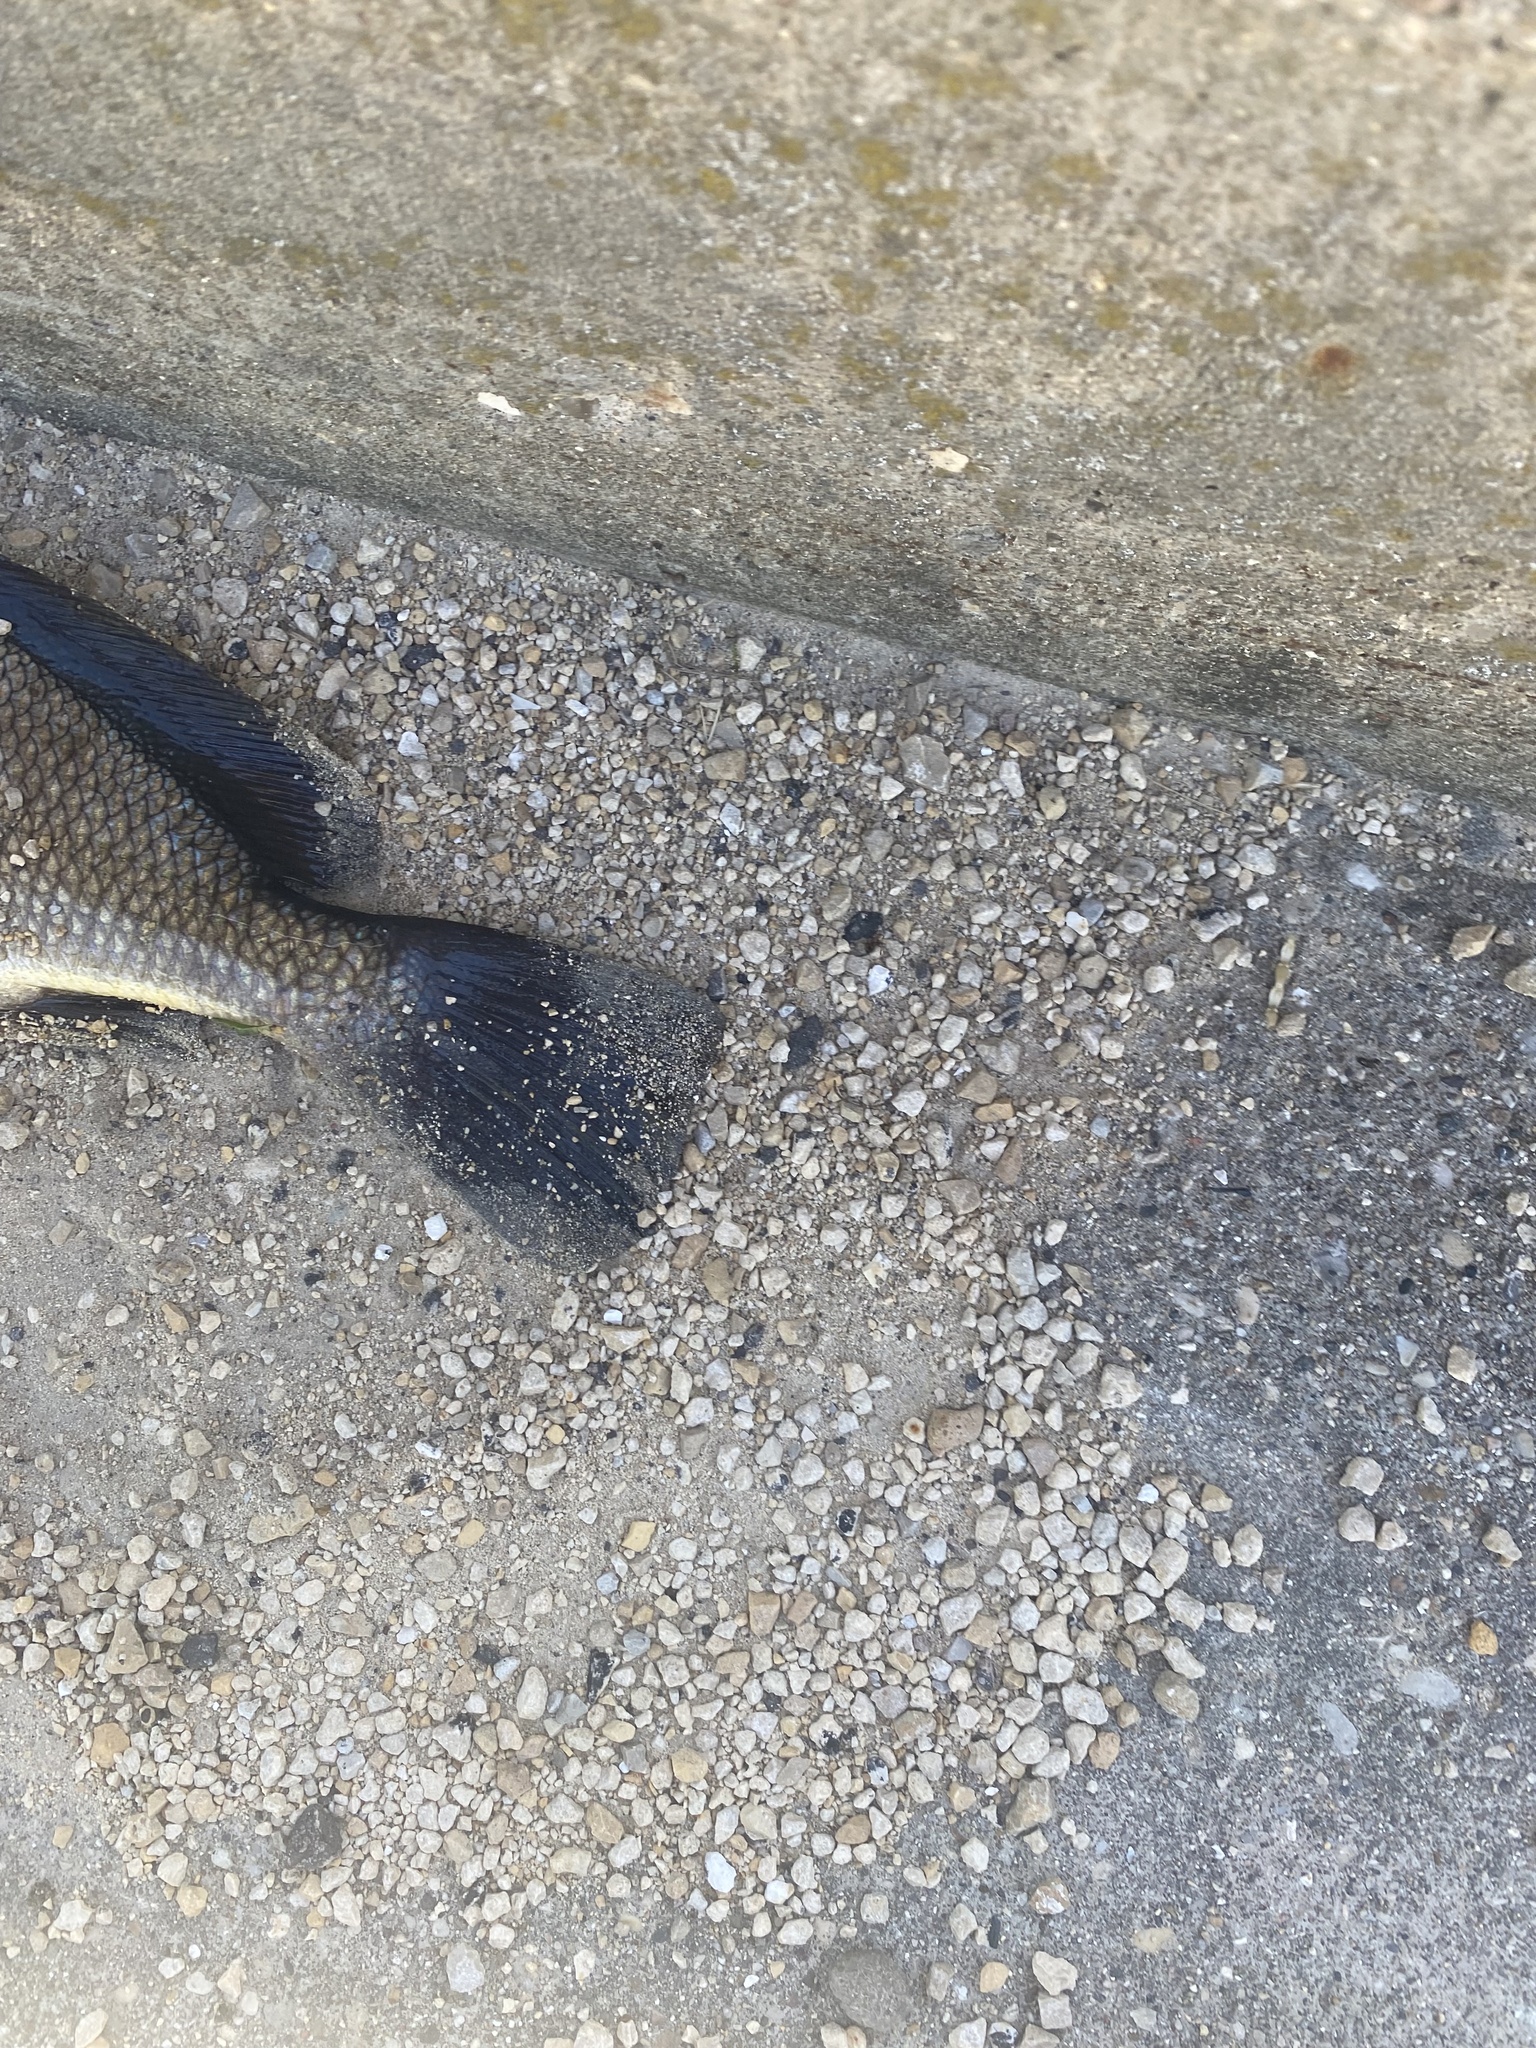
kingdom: Animalia
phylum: Chordata
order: Perciformes
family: Sciaenidae
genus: Aplodinotus
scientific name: Aplodinotus grunniens
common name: Freshwater drum
